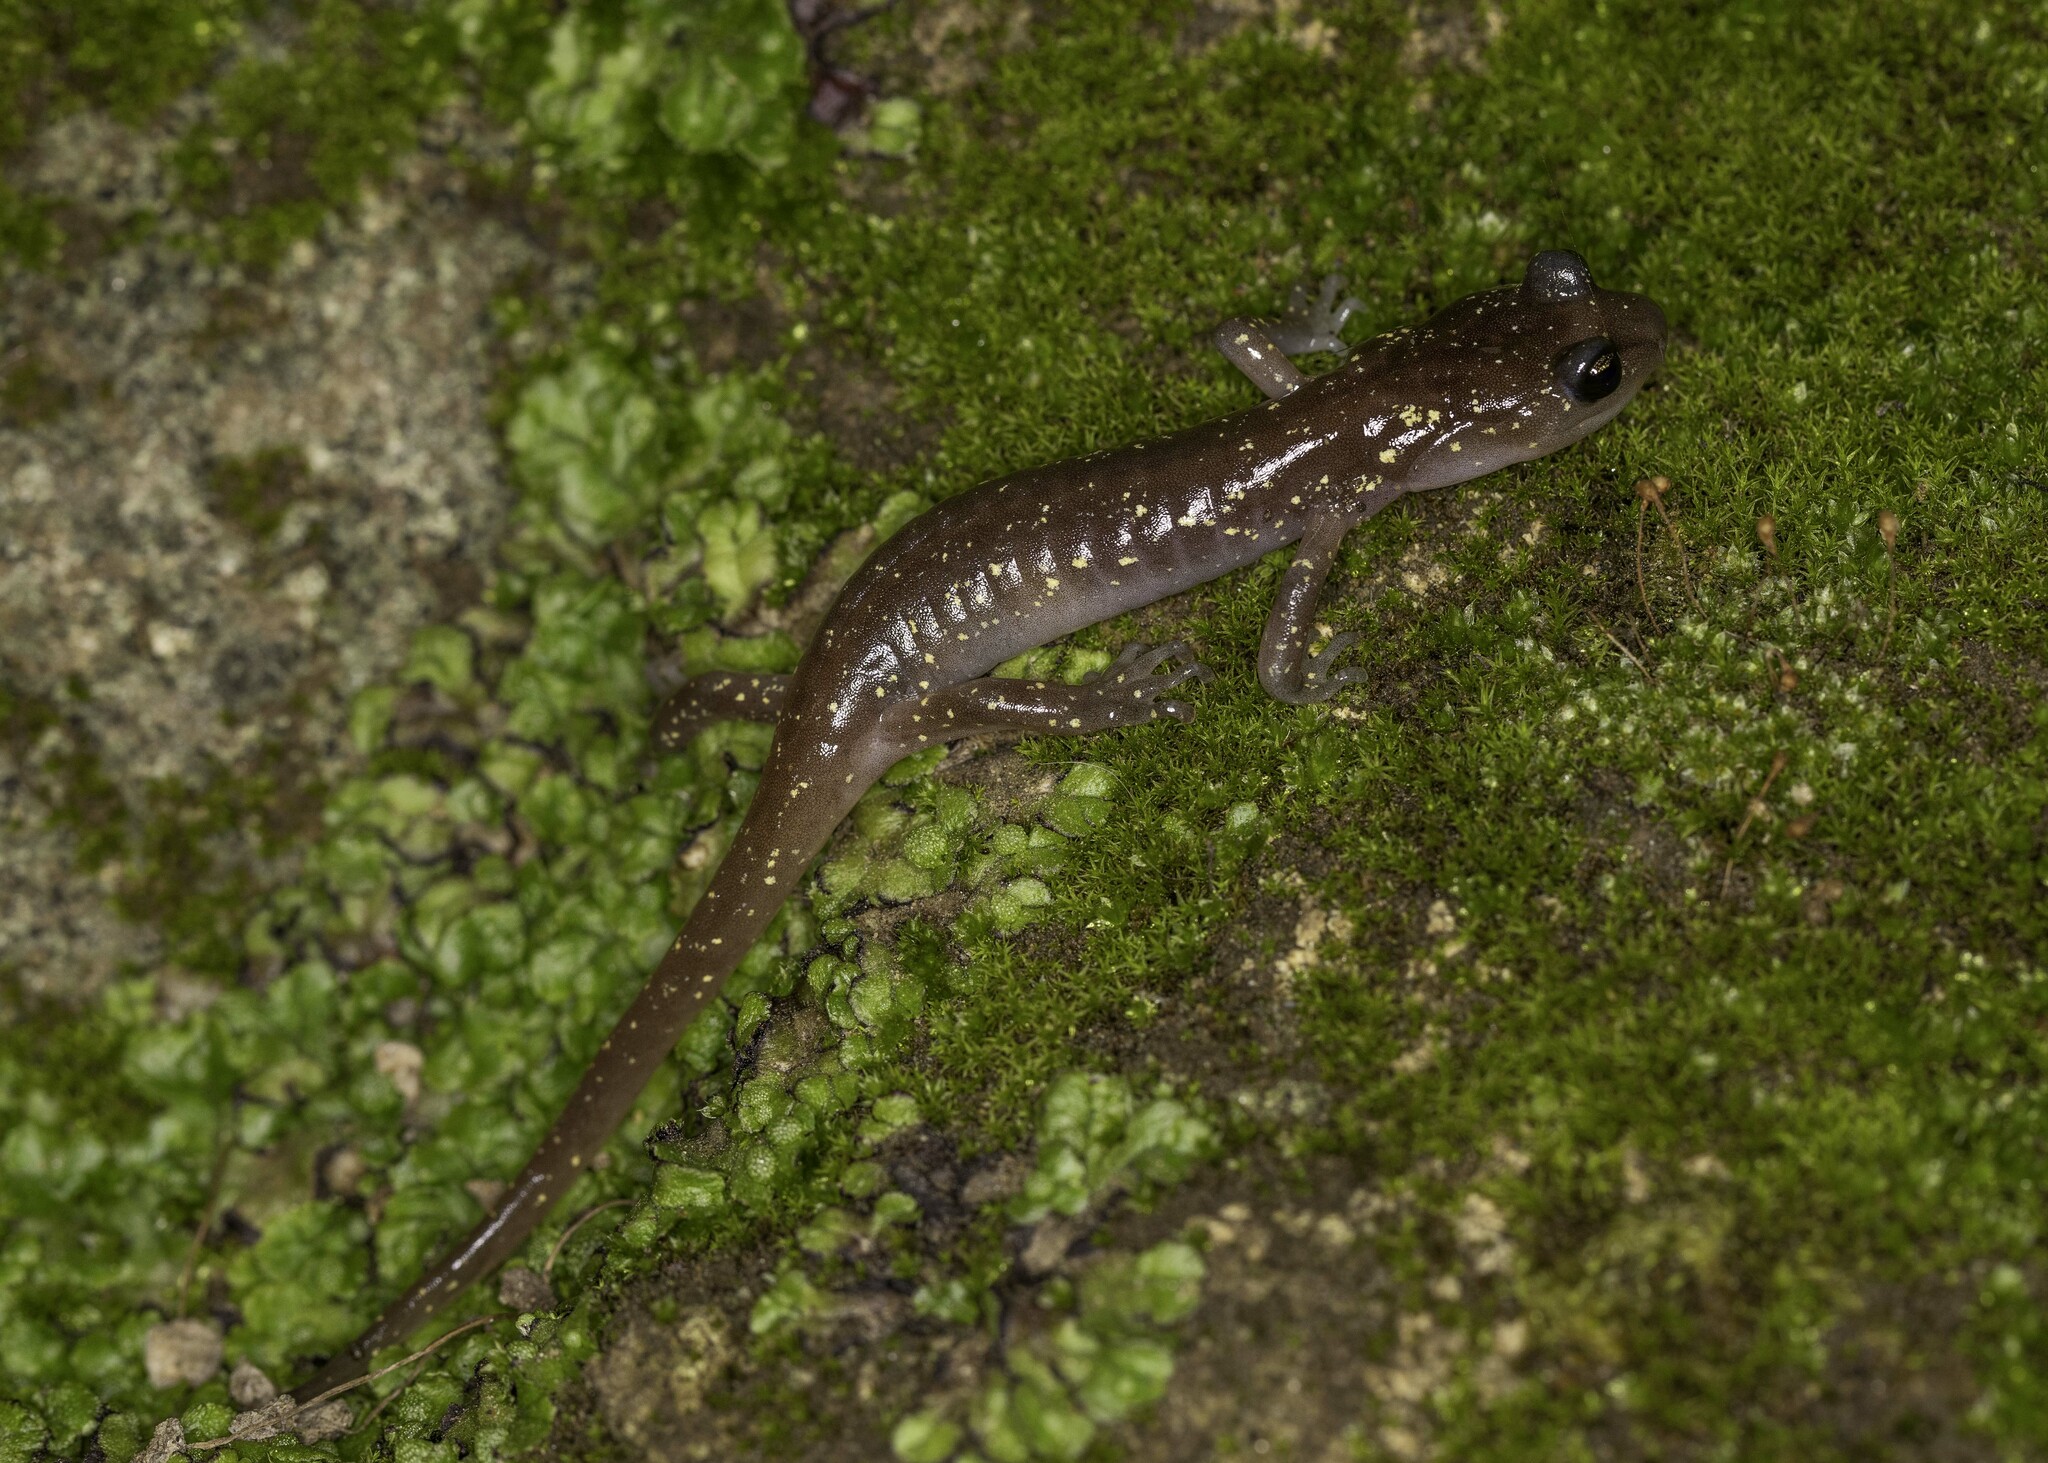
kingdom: Animalia
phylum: Chordata
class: Amphibia
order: Caudata
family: Plethodontidae
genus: Aneides
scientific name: Aneides lugubris
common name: Arboreal salamander
